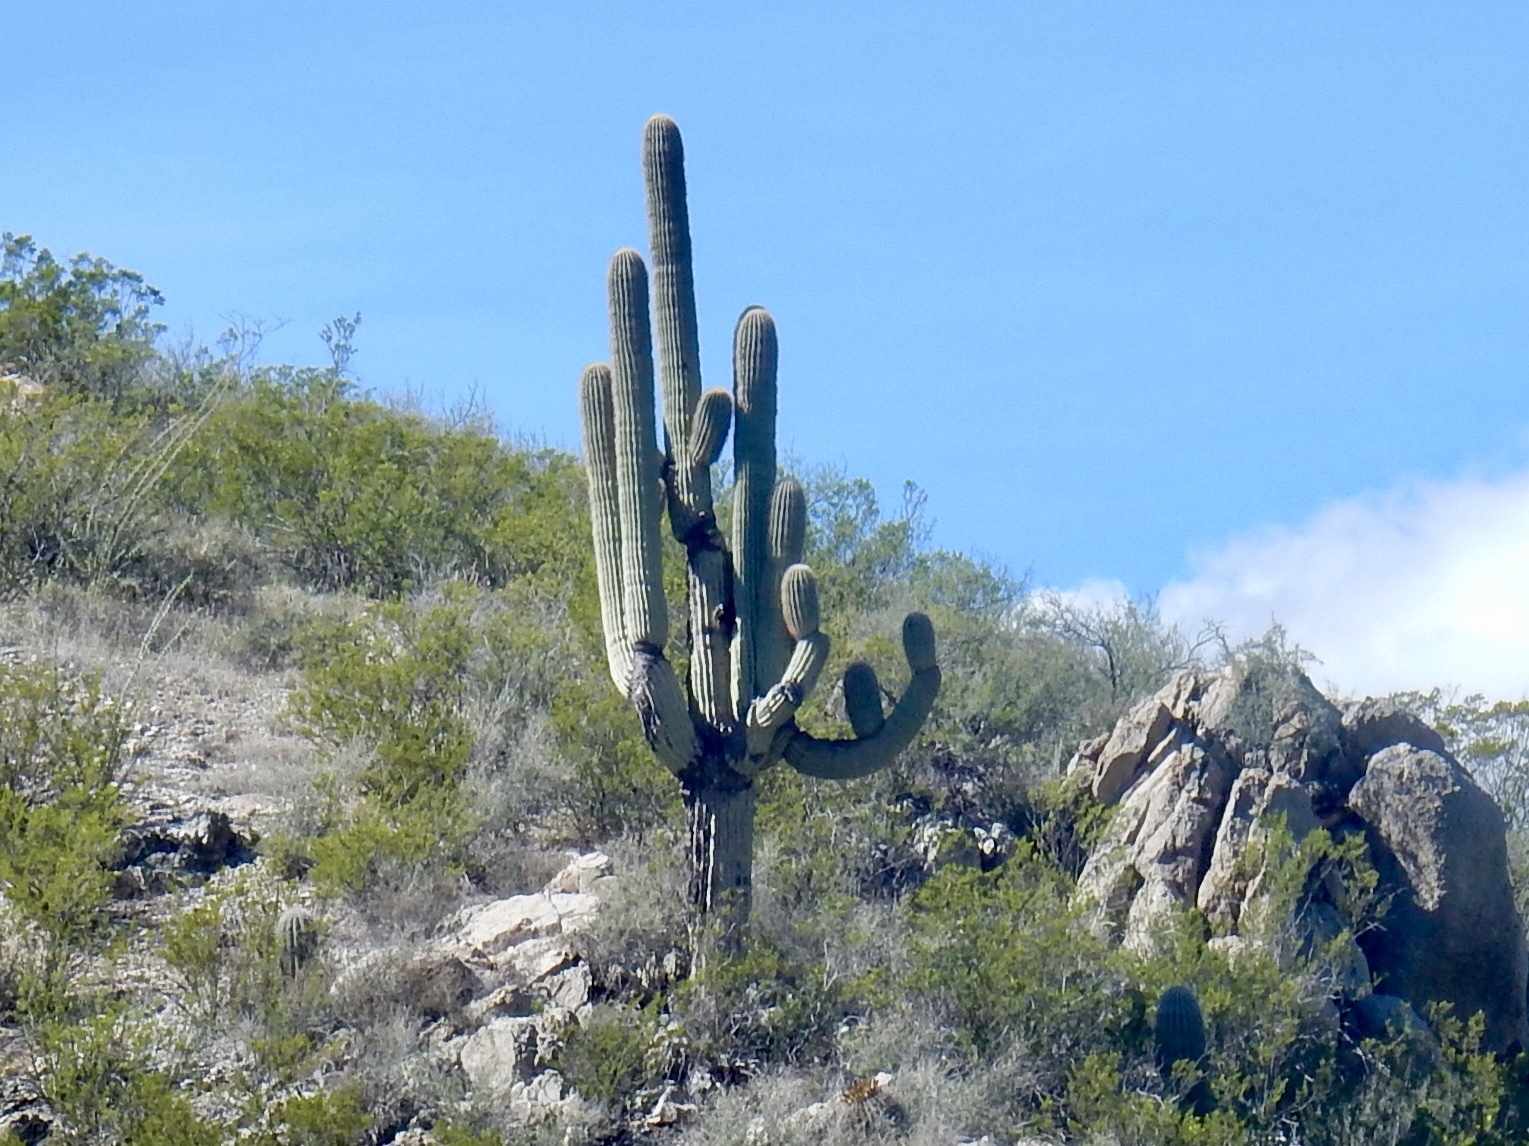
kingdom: Plantae
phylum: Tracheophyta
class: Magnoliopsida
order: Caryophyllales
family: Cactaceae
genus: Carnegiea
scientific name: Carnegiea gigantea
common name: Saguaro
